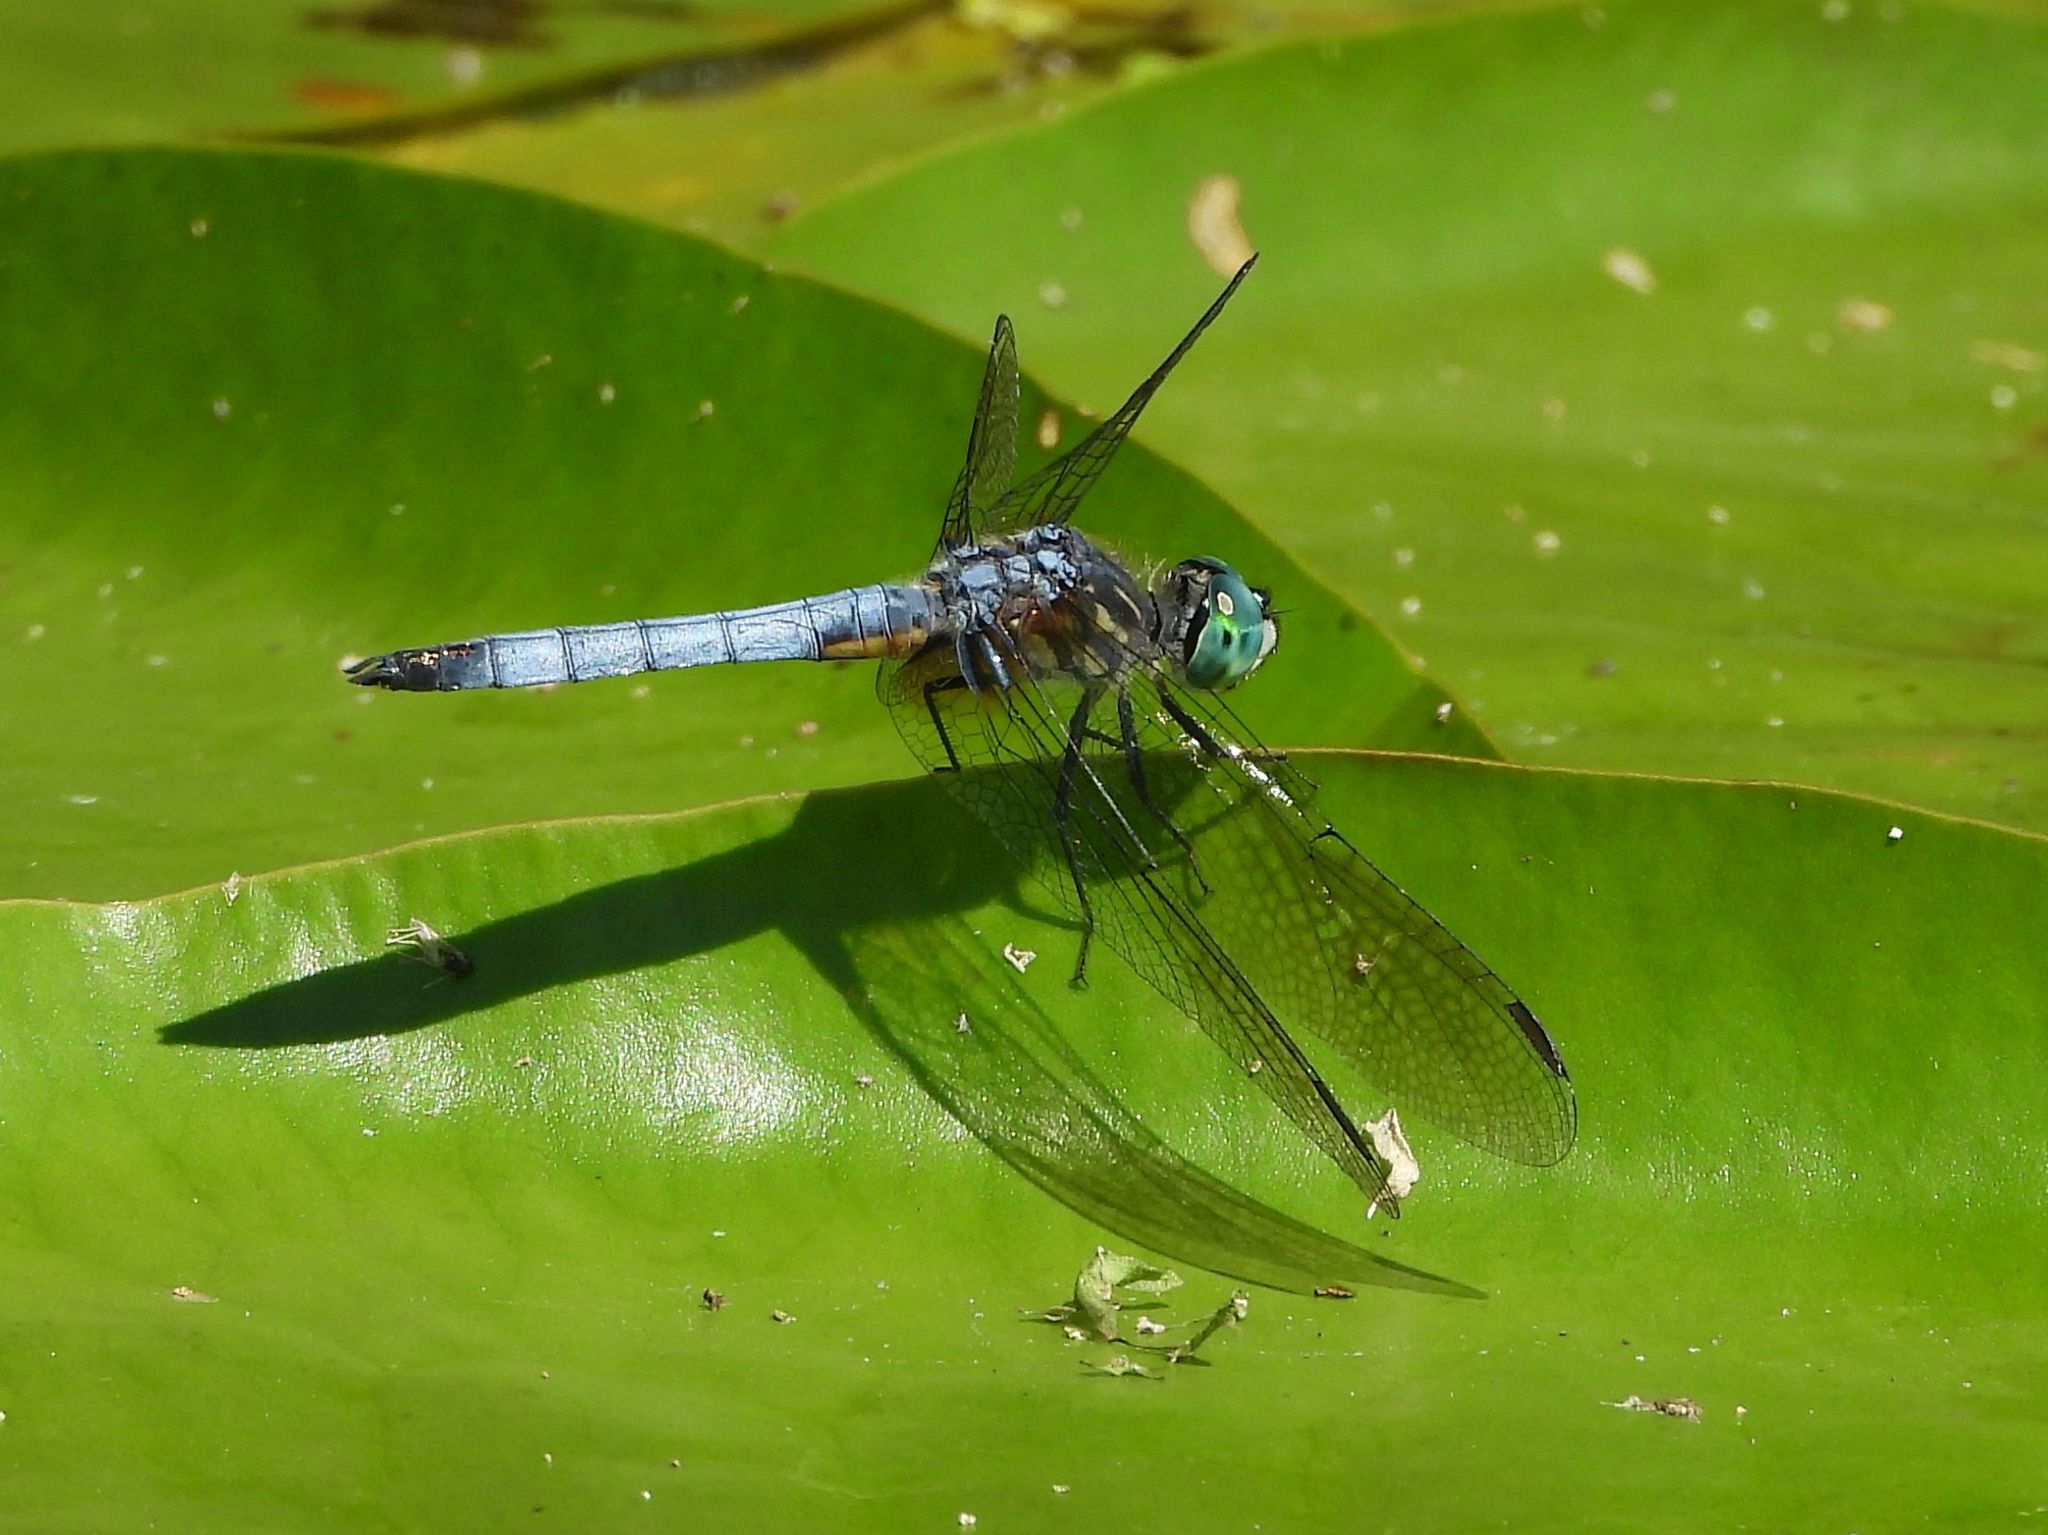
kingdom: Animalia
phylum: Arthropoda
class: Insecta
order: Odonata
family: Libellulidae
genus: Pachydiplax
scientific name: Pachydiplax longipennis
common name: Blue dasher
